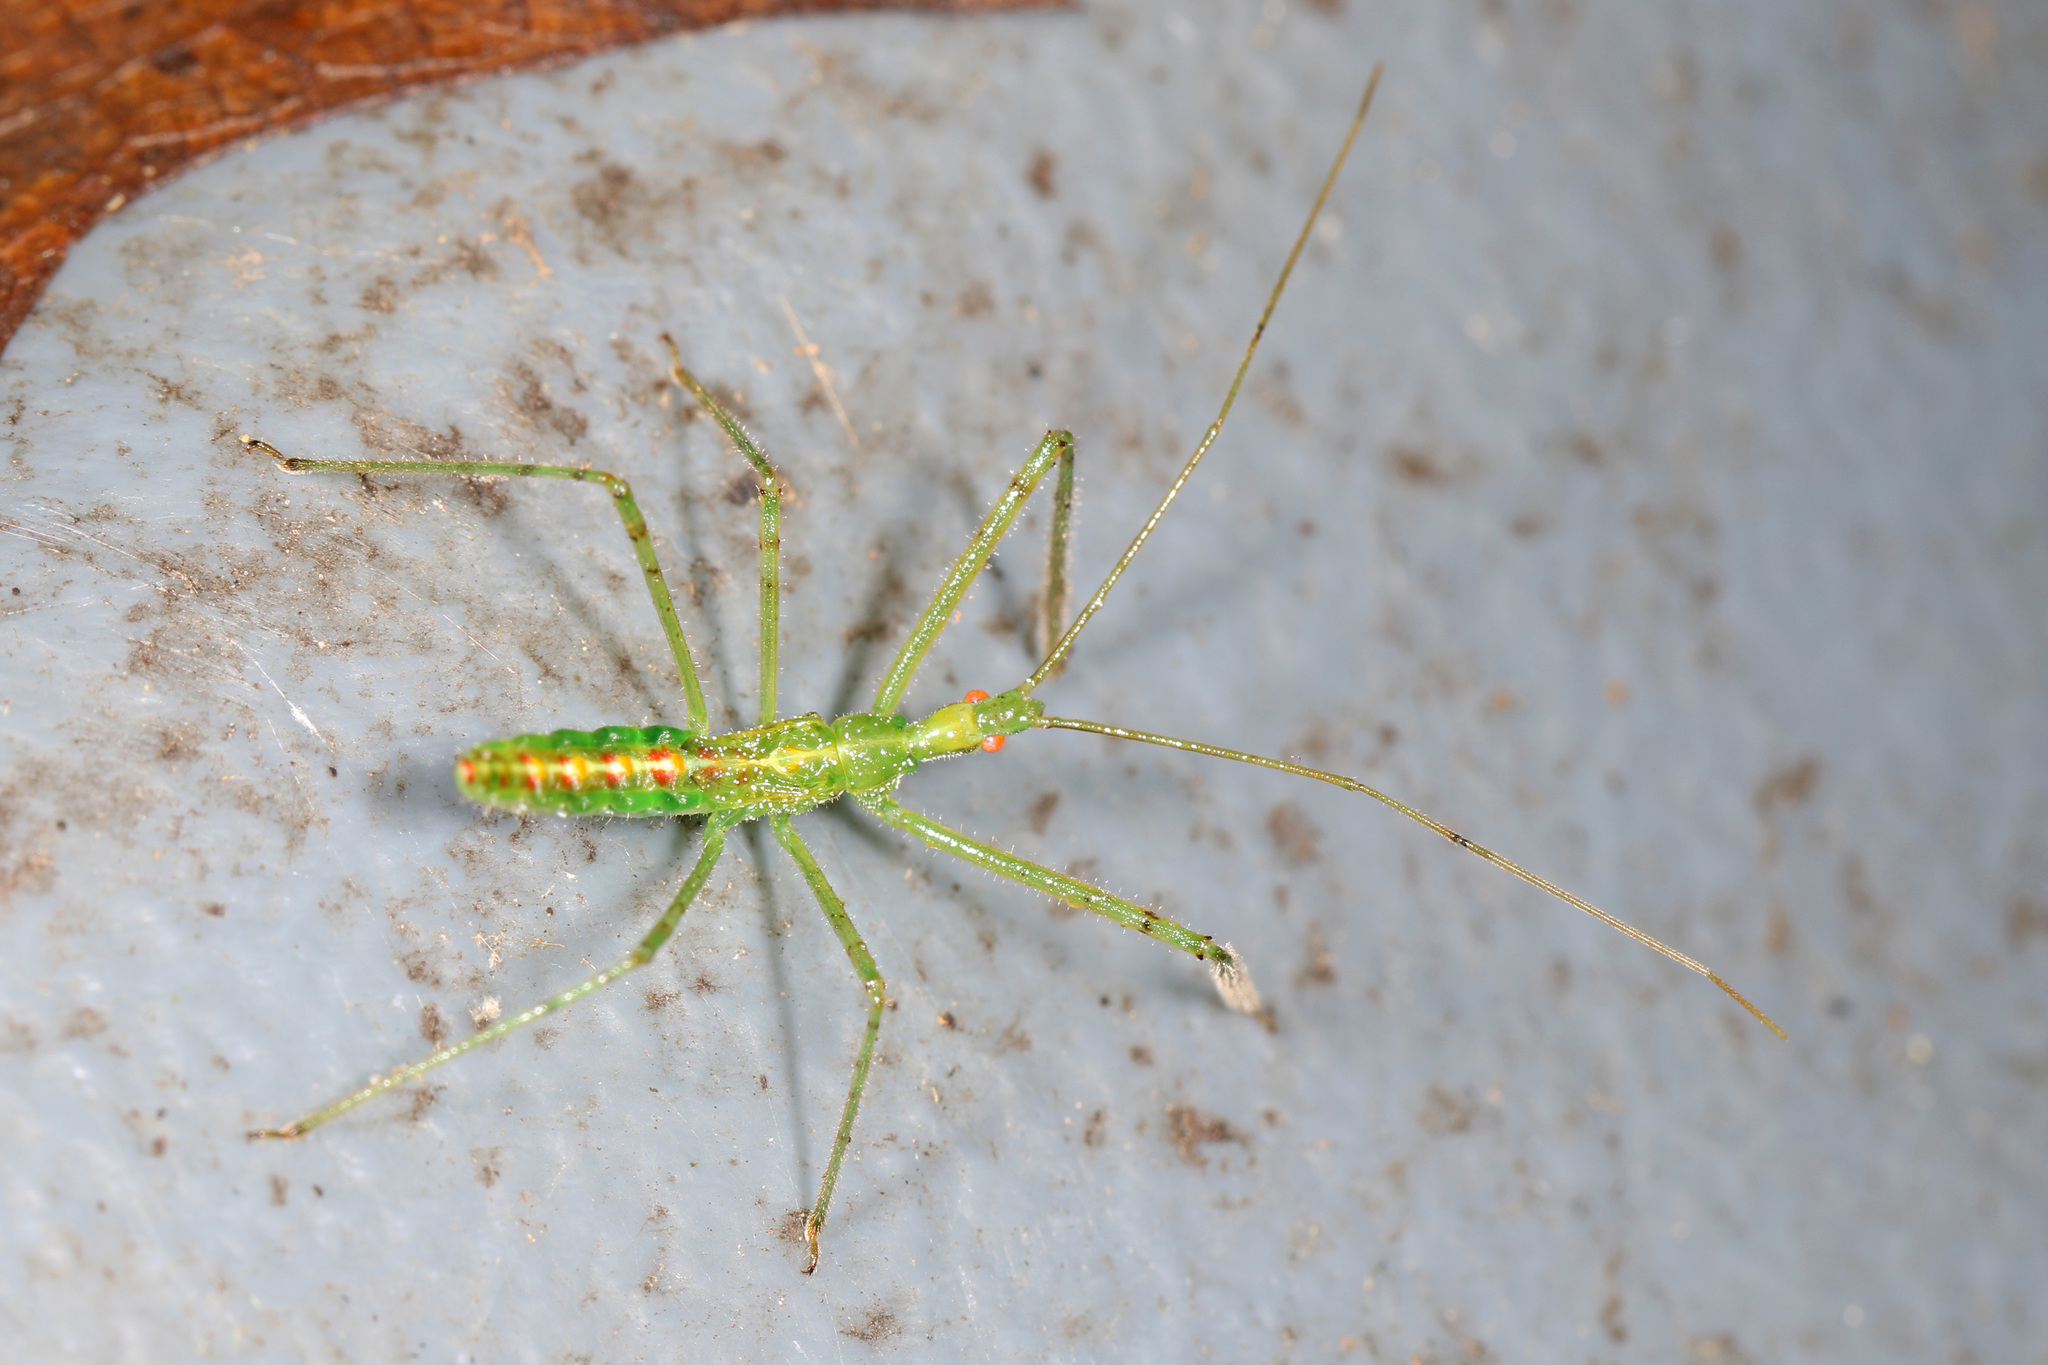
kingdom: Animalia
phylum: Arthropoda
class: Insecta
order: Hemiptera
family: Reduviidae
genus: Zelus
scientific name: Zelus luridus
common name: Pale green assassin bug
